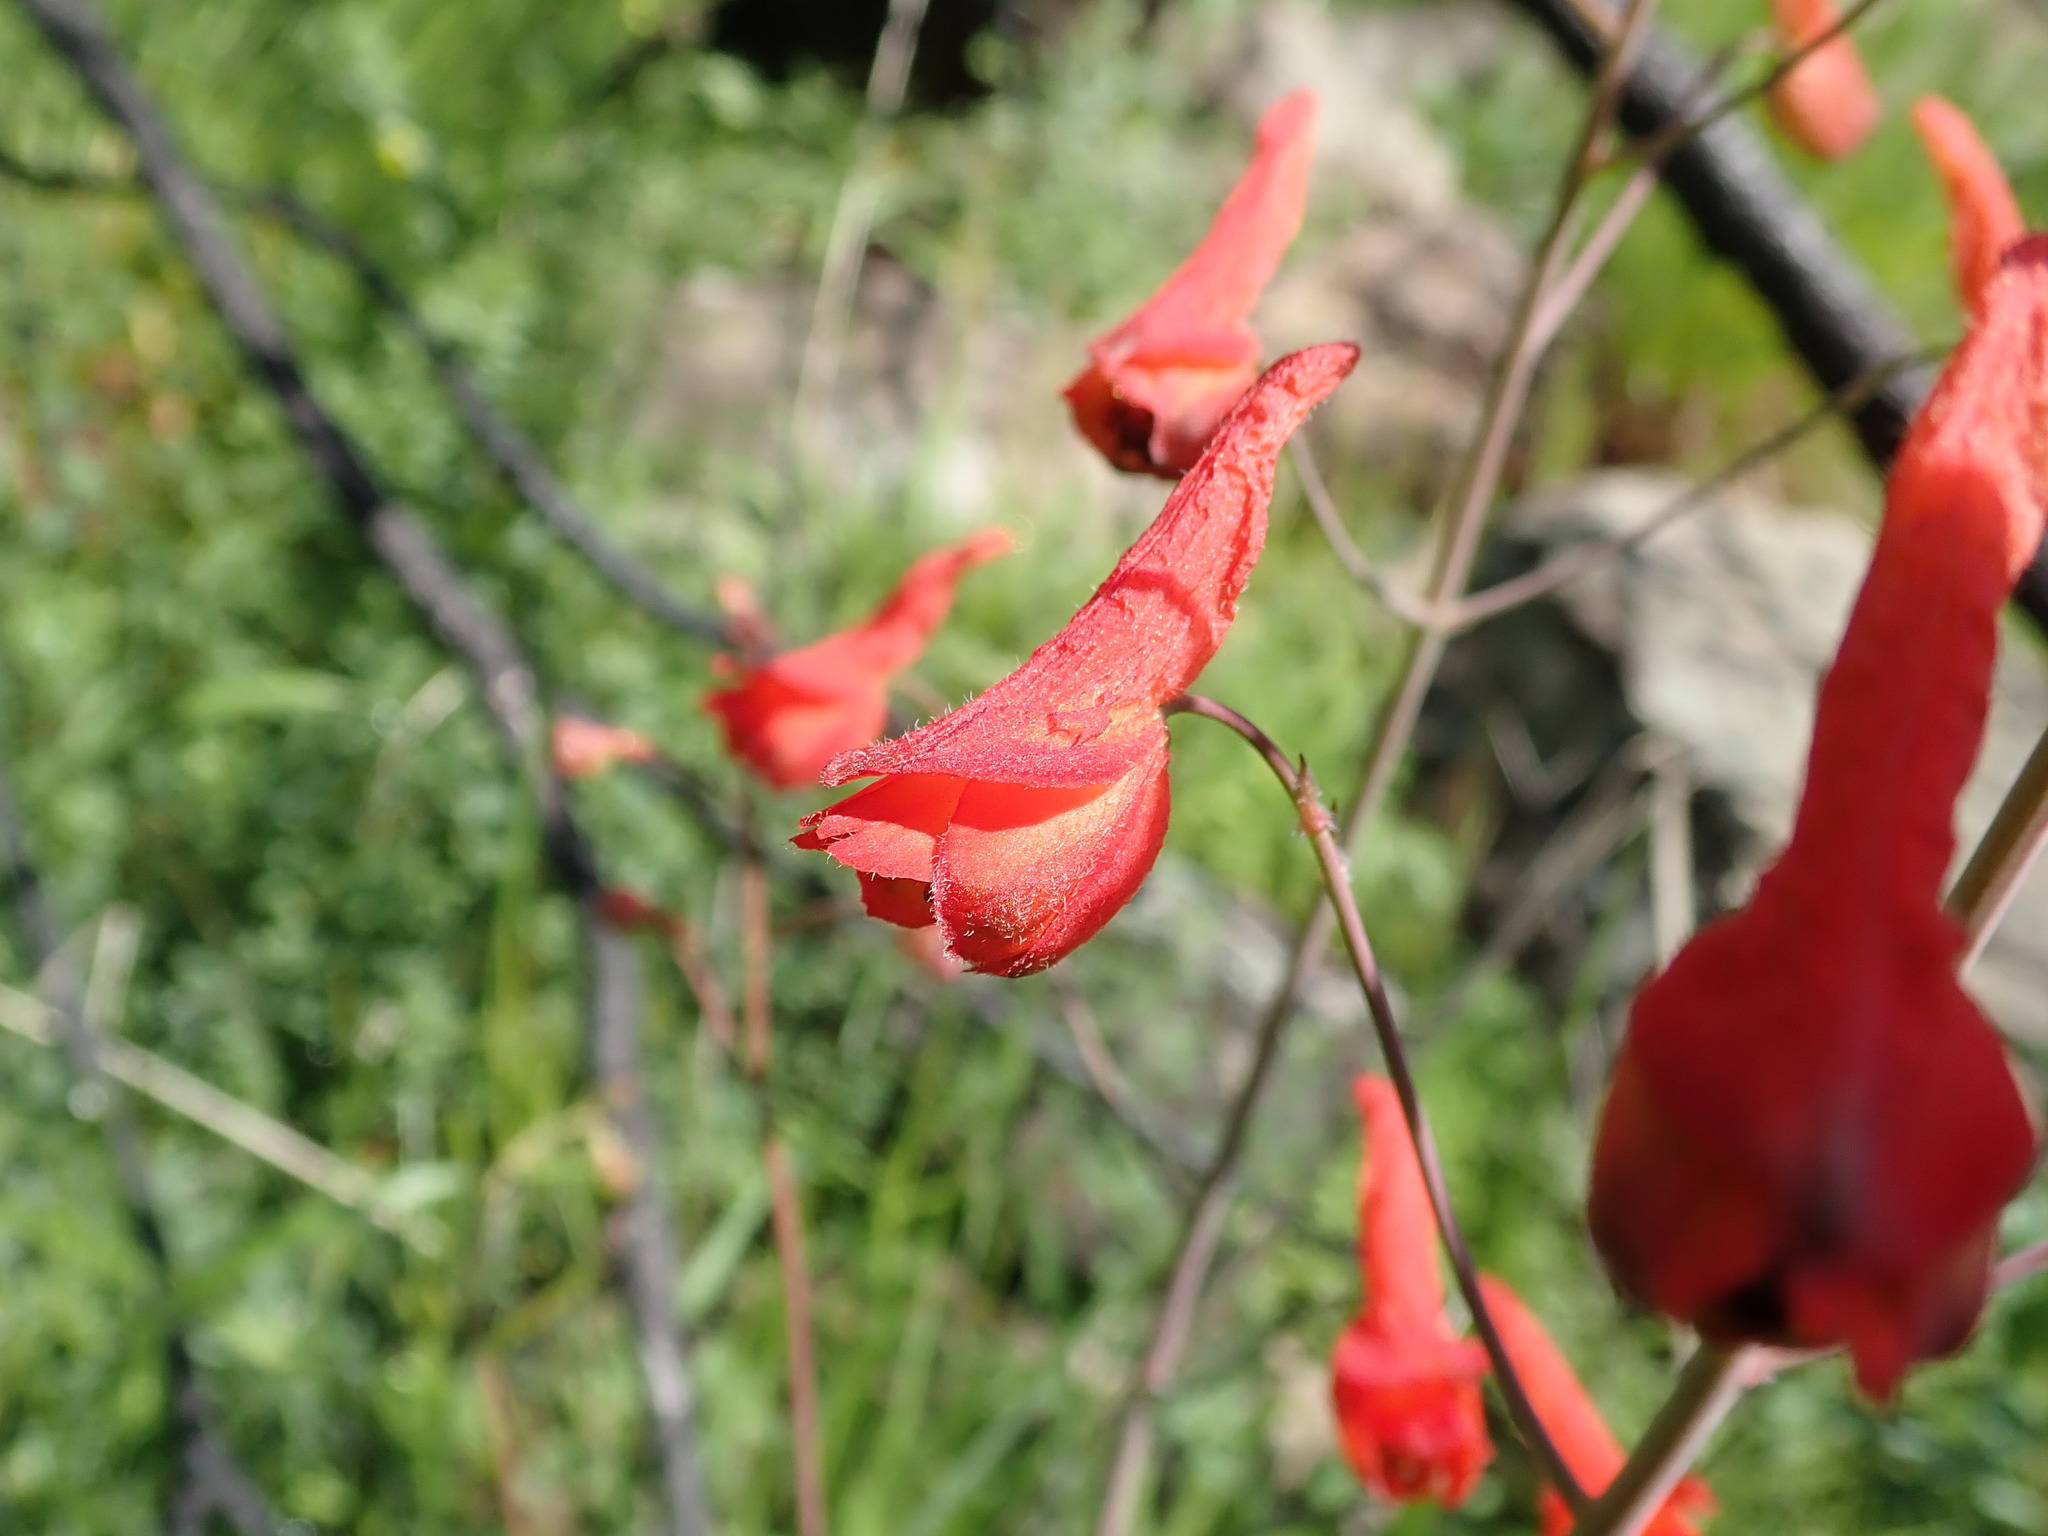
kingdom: Plantae
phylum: Tracheophyta
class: Magnoliopsida
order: Ranunculales
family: Ranunculaceae
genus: Delphinium
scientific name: Delphinium nudicaule
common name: Red larkspur
